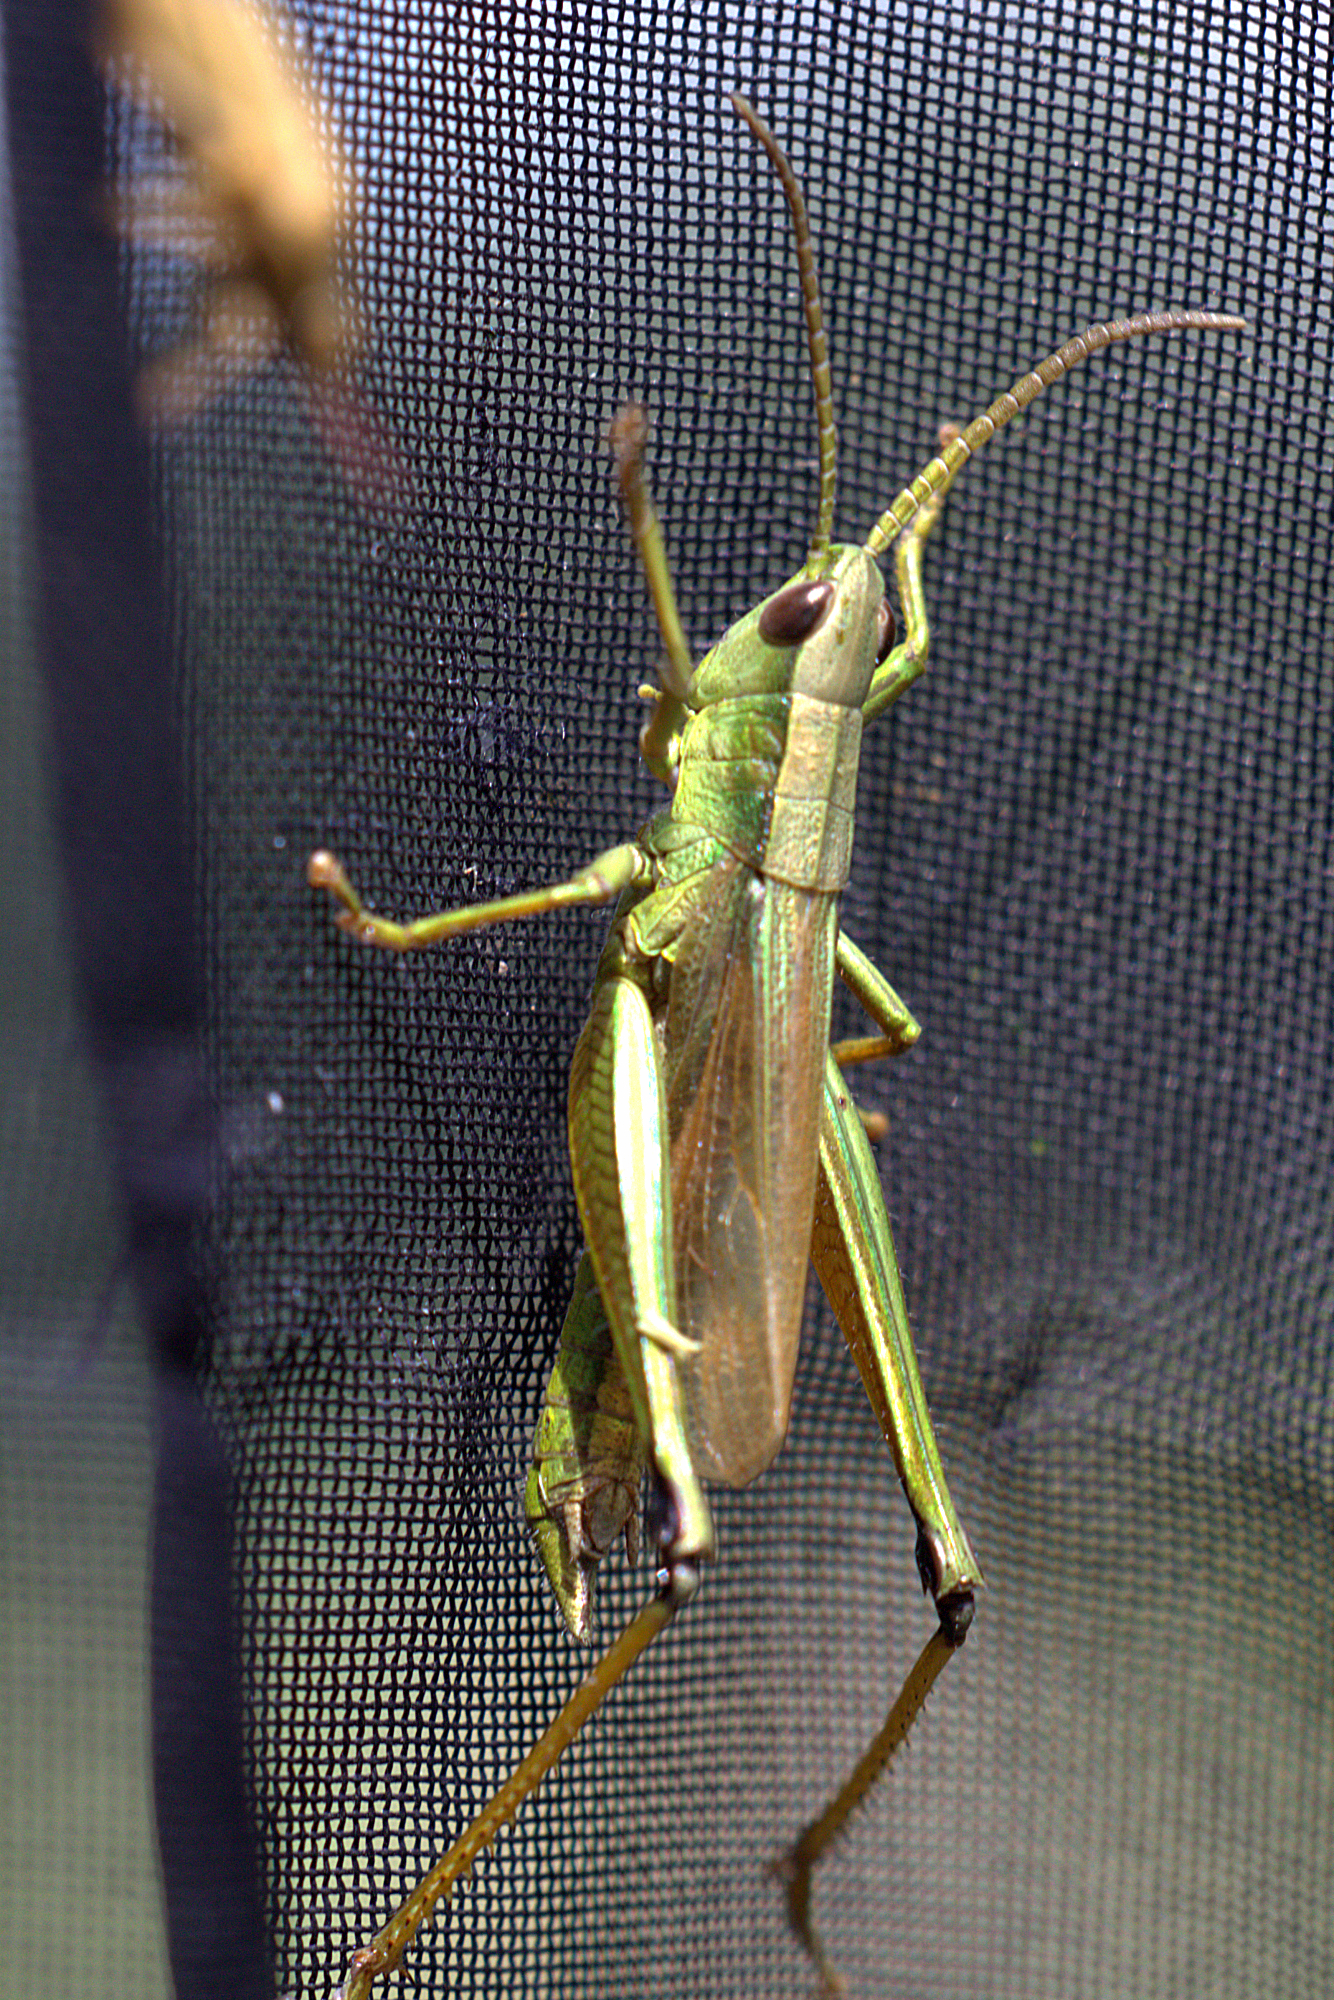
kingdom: Animalia
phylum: Arthropoda
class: Insecta
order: Orthoptera
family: Acrididae
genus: Chrysochraon
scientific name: Chrysochraon dispar
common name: Large gold grasshopper
